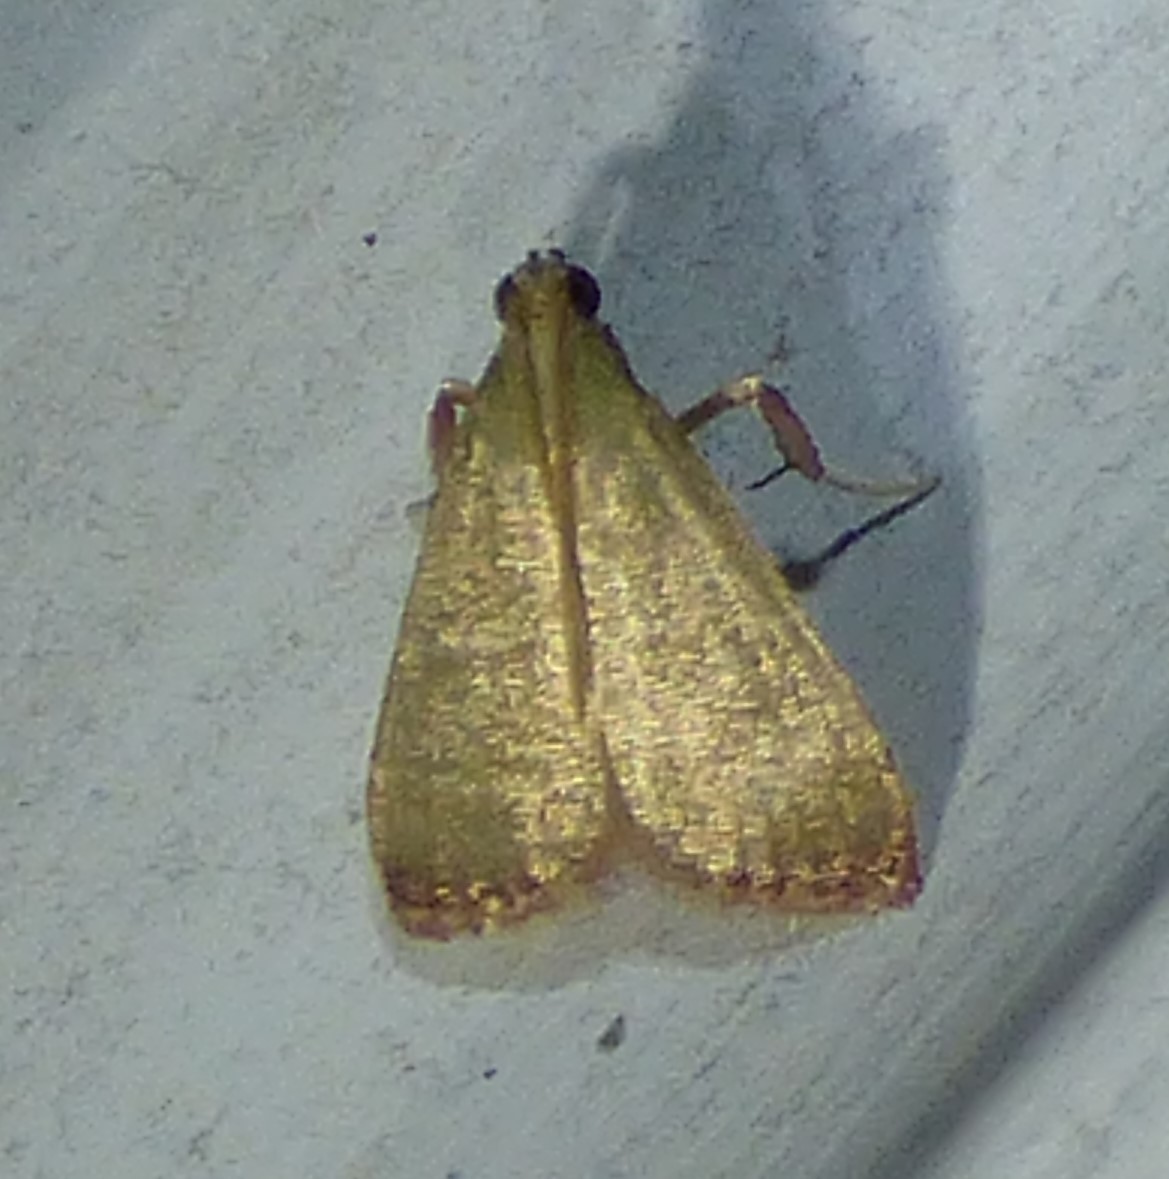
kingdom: Animalia
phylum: Arthropoda
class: Insecta
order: Lepidoptera
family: Pyralidae
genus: Arta
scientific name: Arta olivalis
